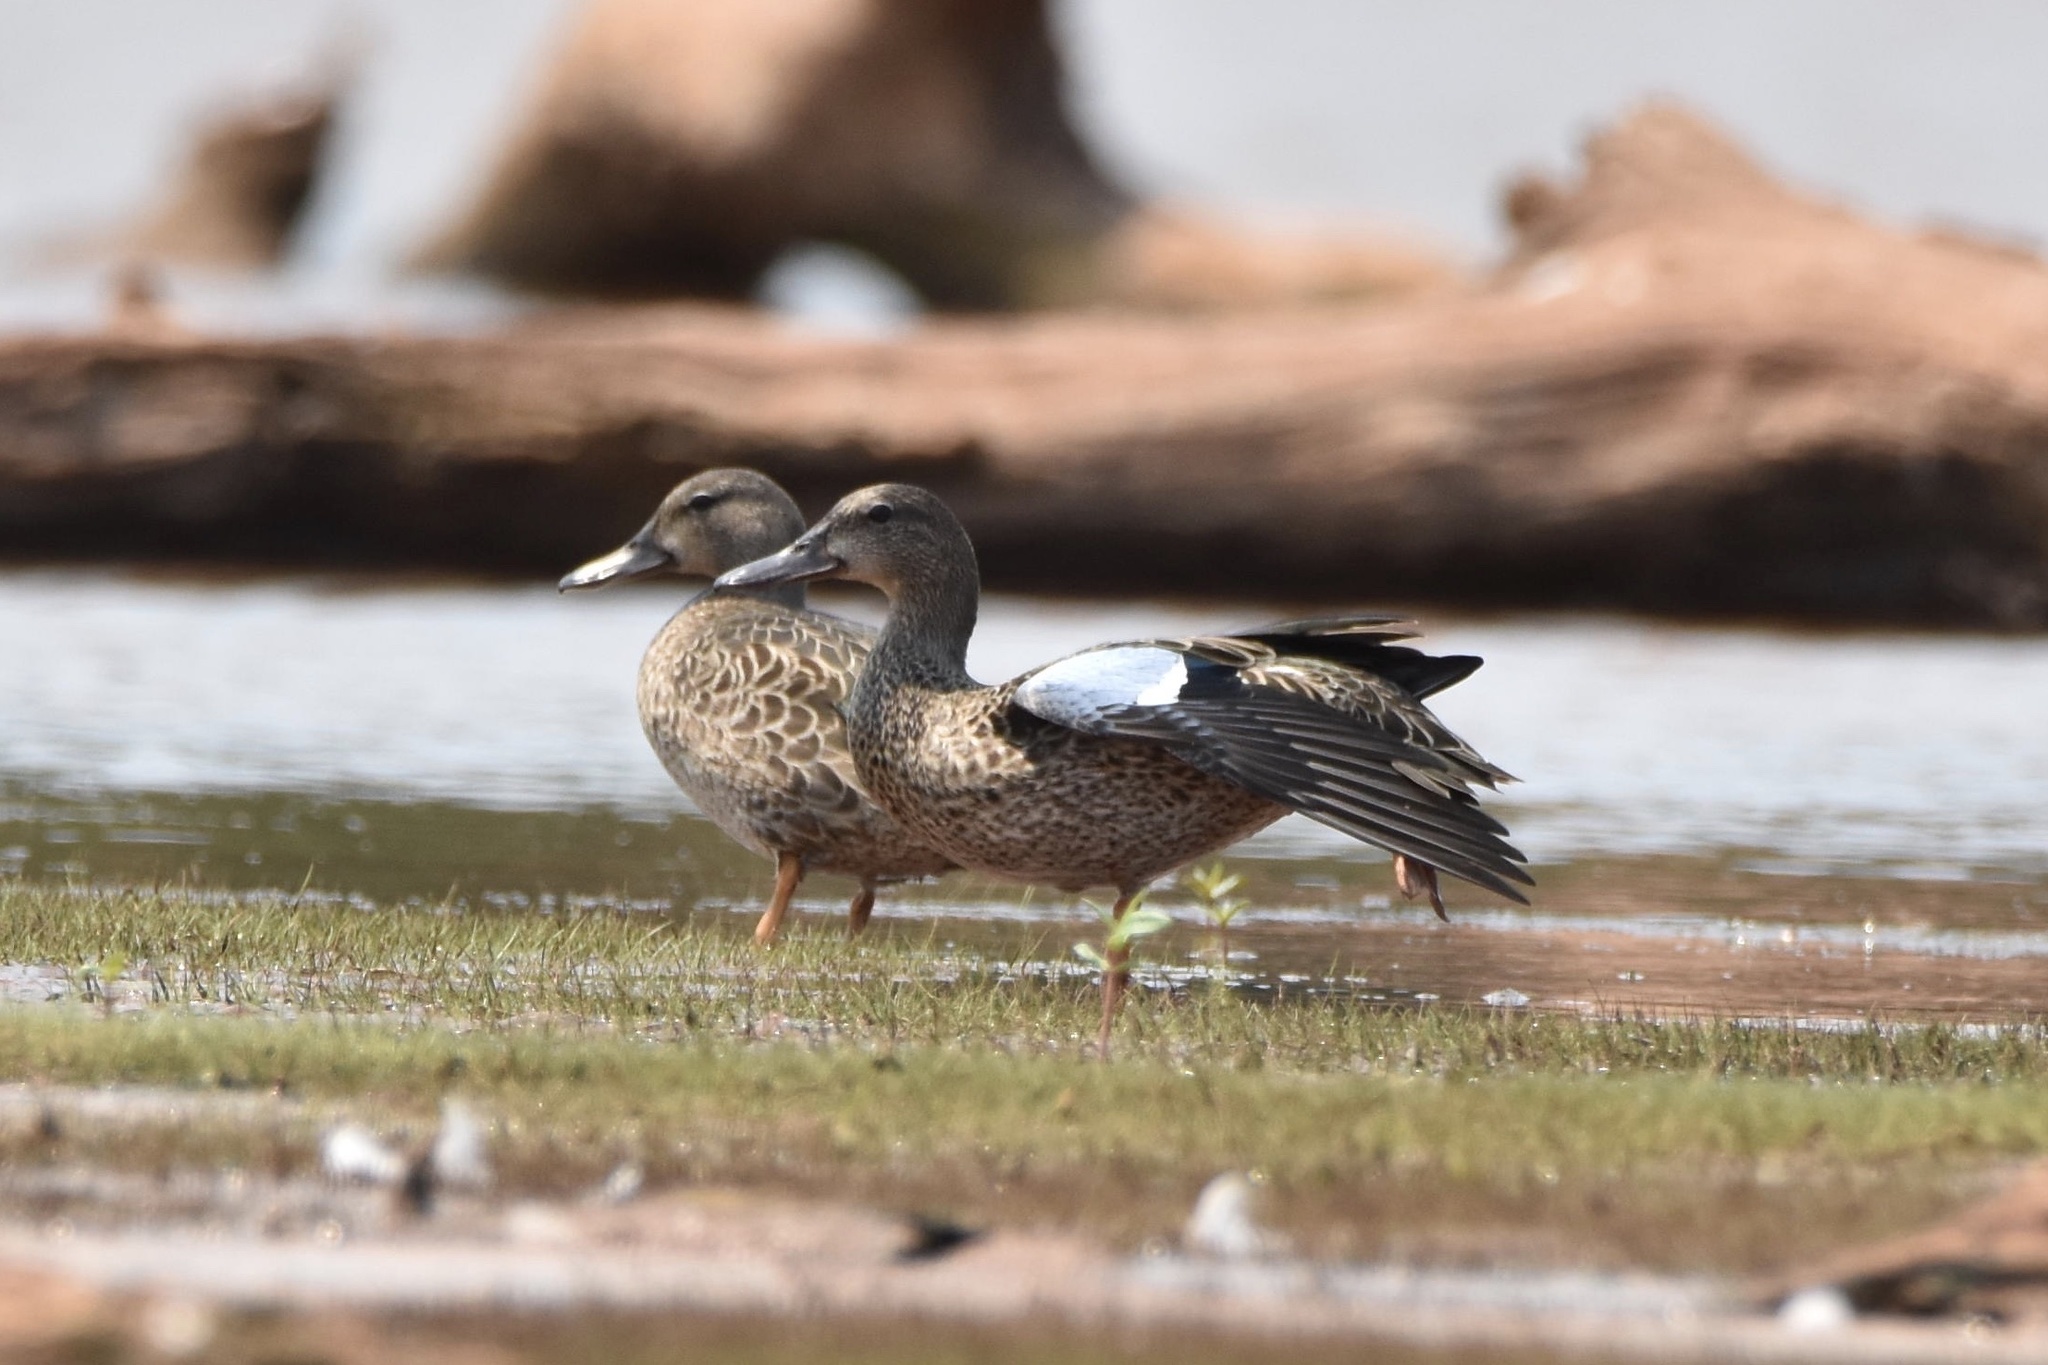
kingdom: Animalia
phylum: Chordata
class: Aves
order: Anseriformes
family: Anatidae
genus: Spatula
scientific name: Spatula discors
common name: Blue-winged teal
